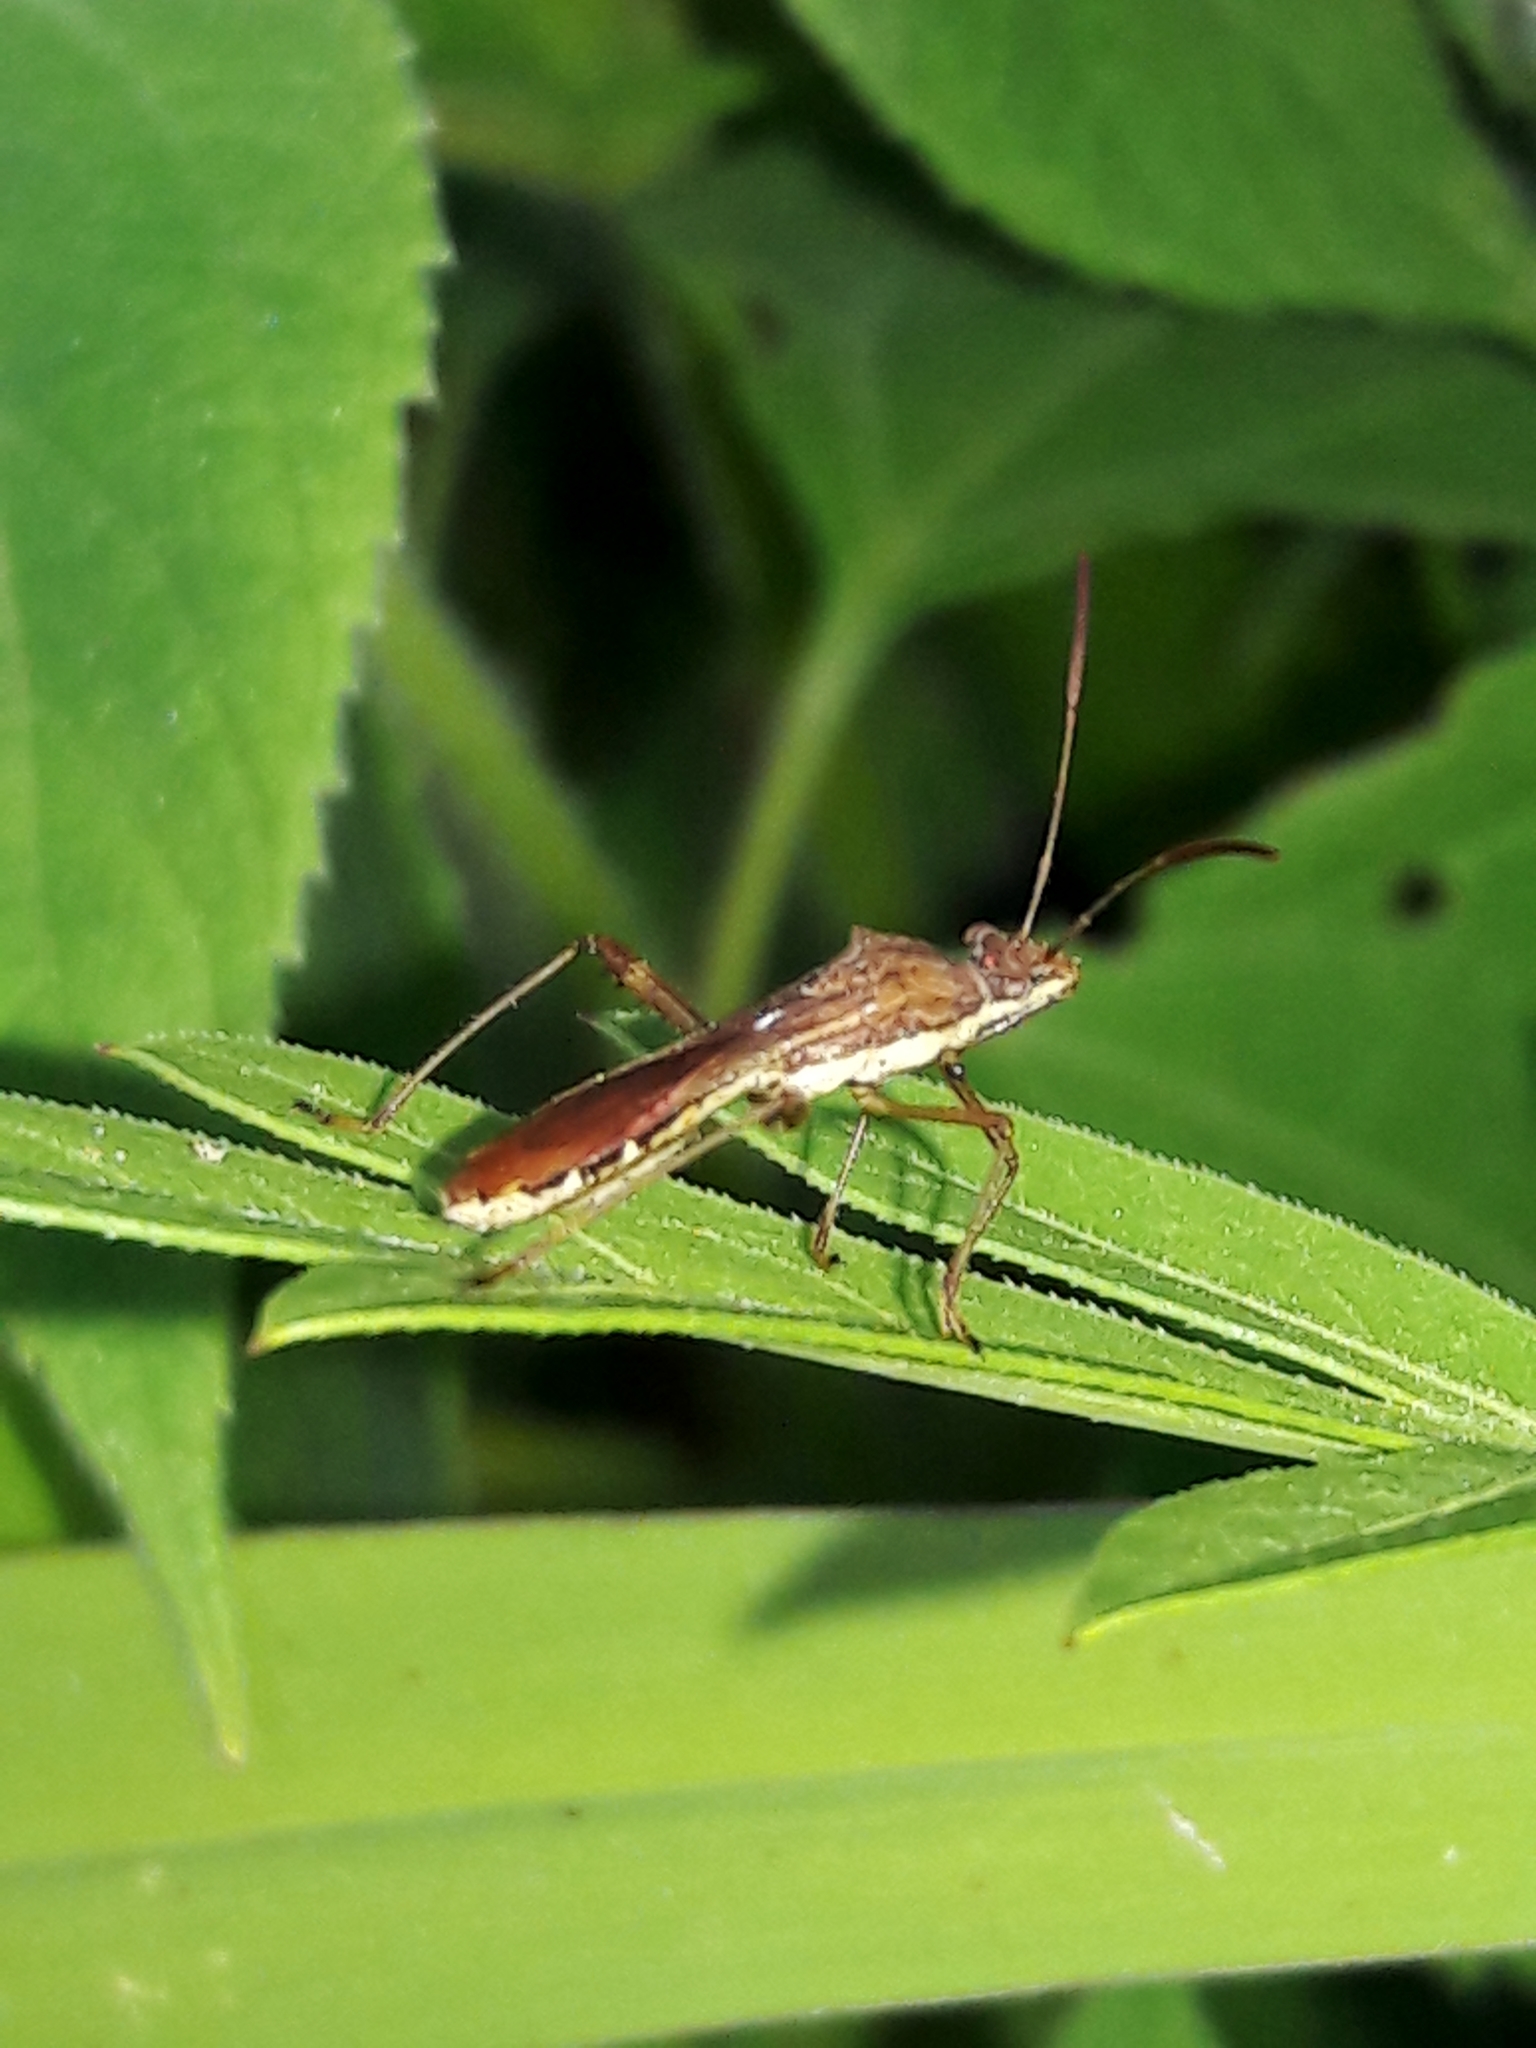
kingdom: Animalia
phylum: Arthropoda
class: Insecta
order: Hemiptera
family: Alydidae
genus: Neomegalotomus
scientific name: Neomegalotomus parvus
